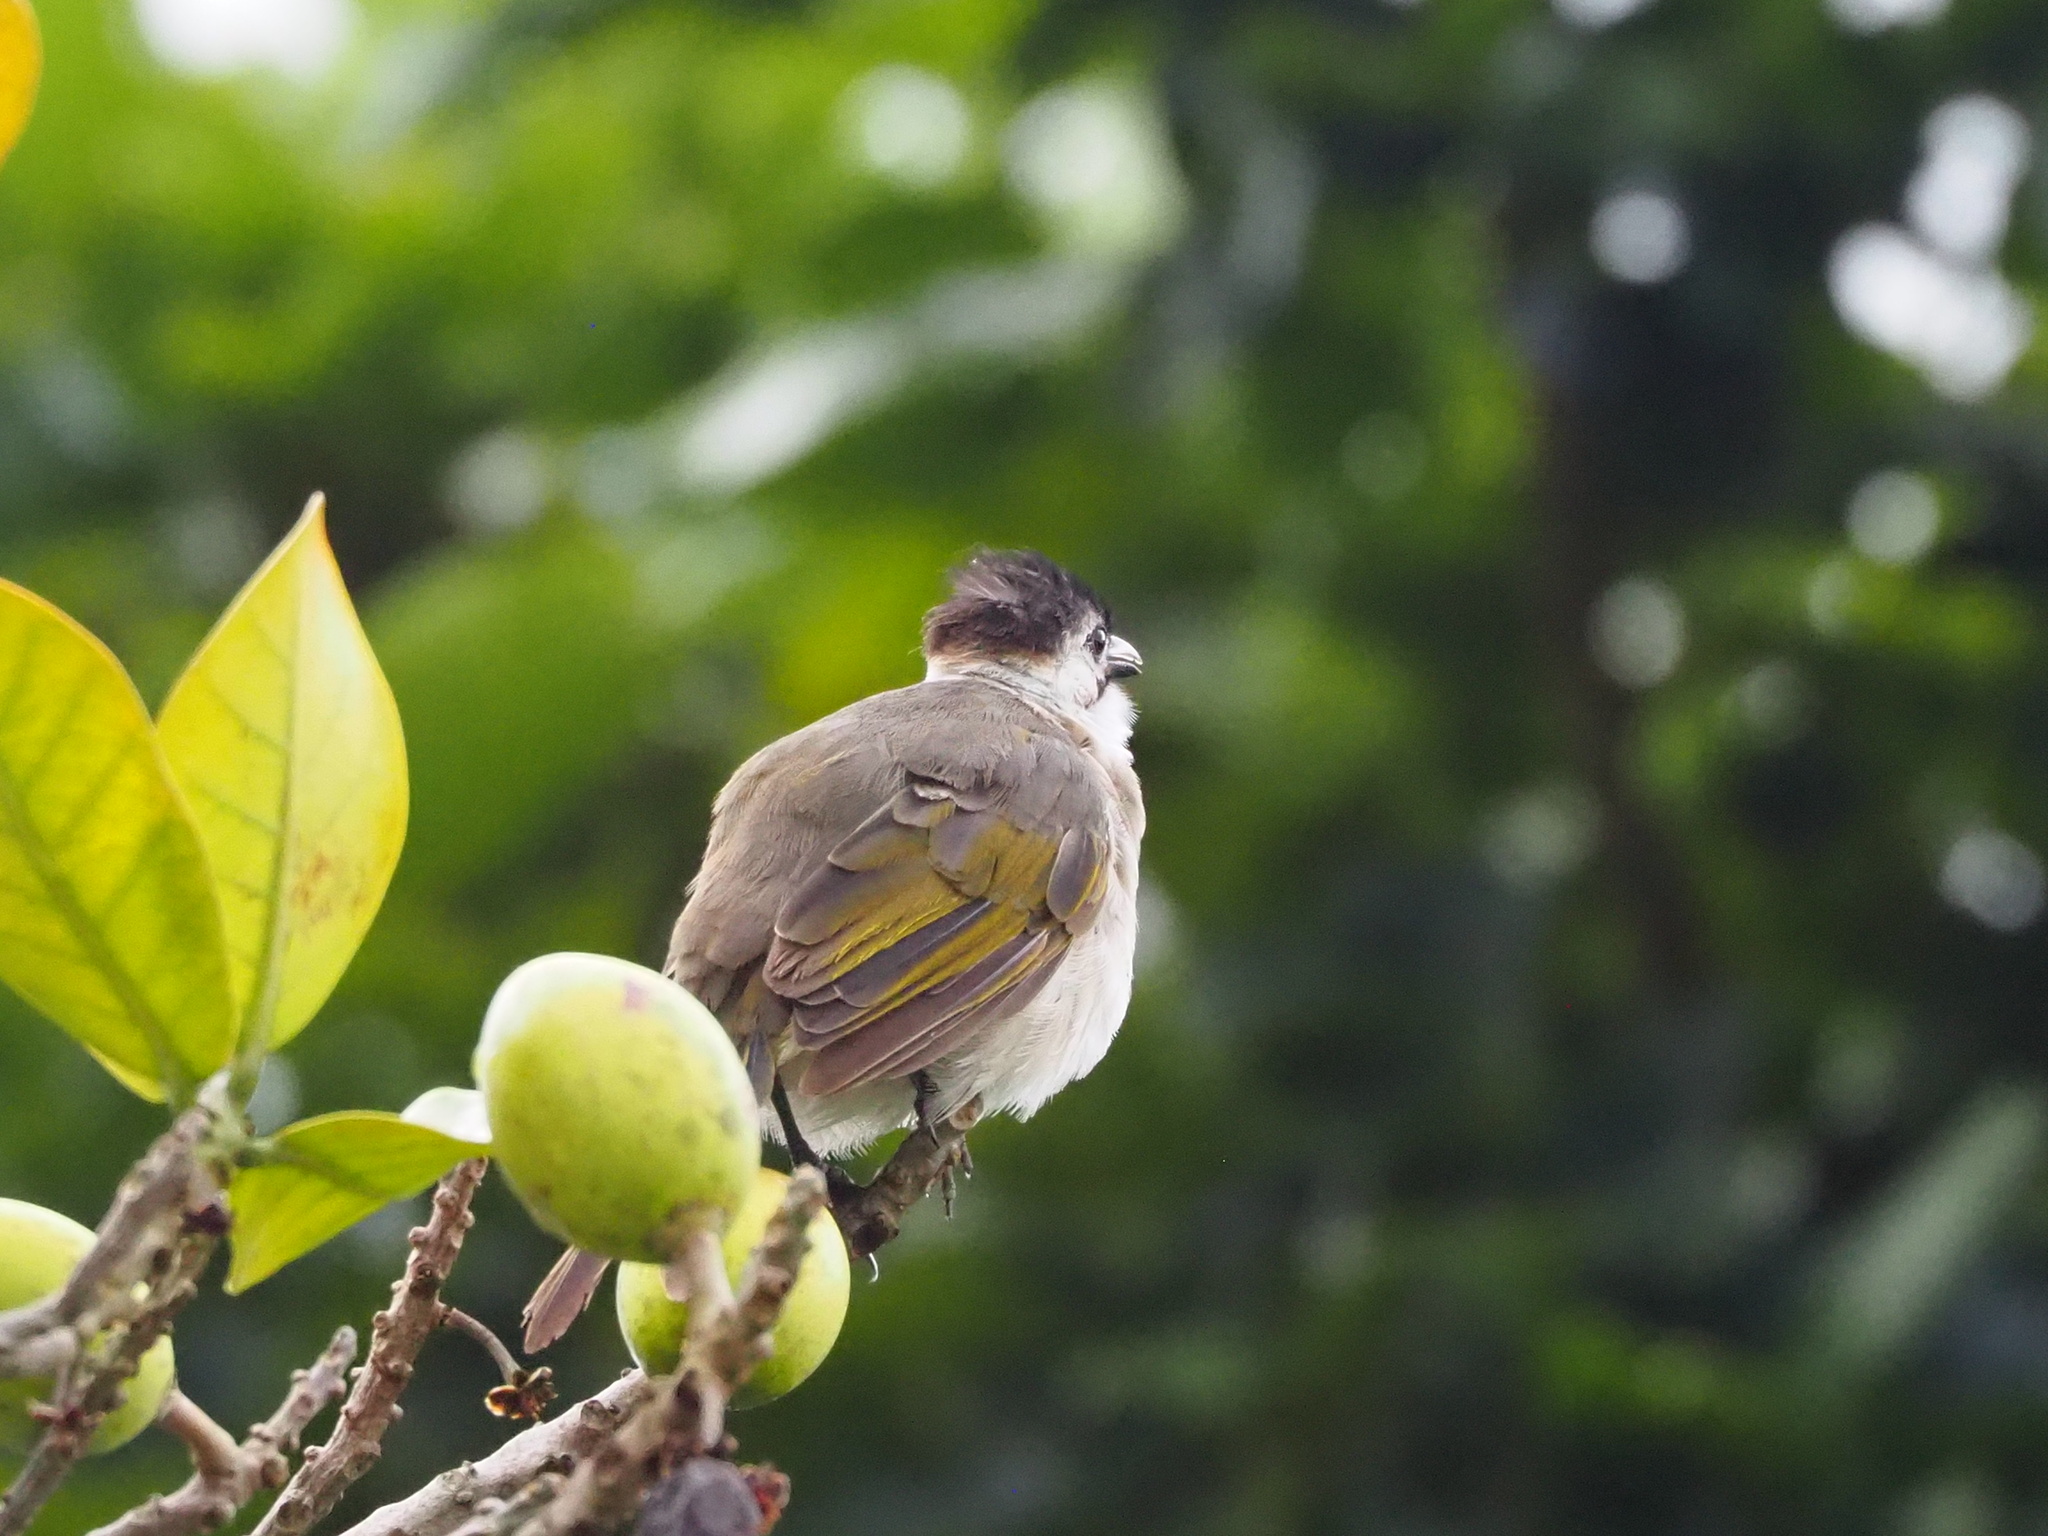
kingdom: Animalia
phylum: Chordata
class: Aves
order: Passeriformes
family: Pycnonotidae
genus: Pycnonotus
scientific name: Pycnonotus taivanus
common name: Styan's bulbul
